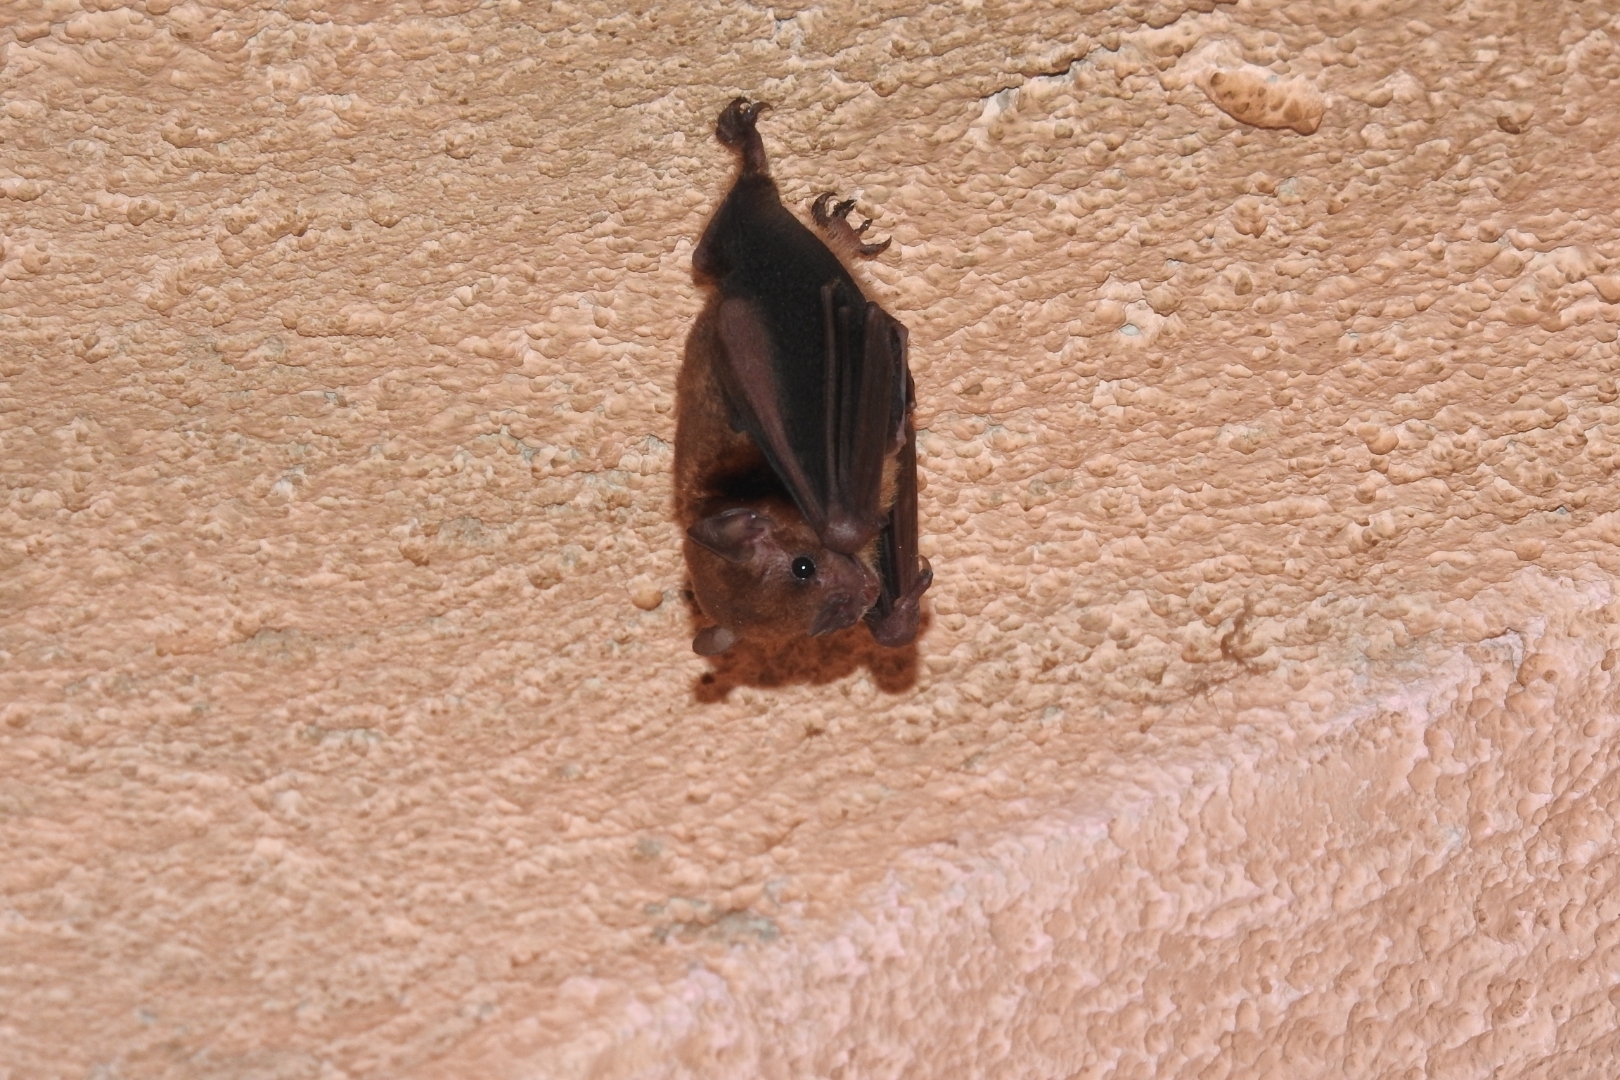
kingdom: Animalia
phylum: Chordata
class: Mammalia
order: Chiroptera
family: Phyllostomidae
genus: Sturnira
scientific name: Sturnira parvidens
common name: Northern yellow-shouldered bat
